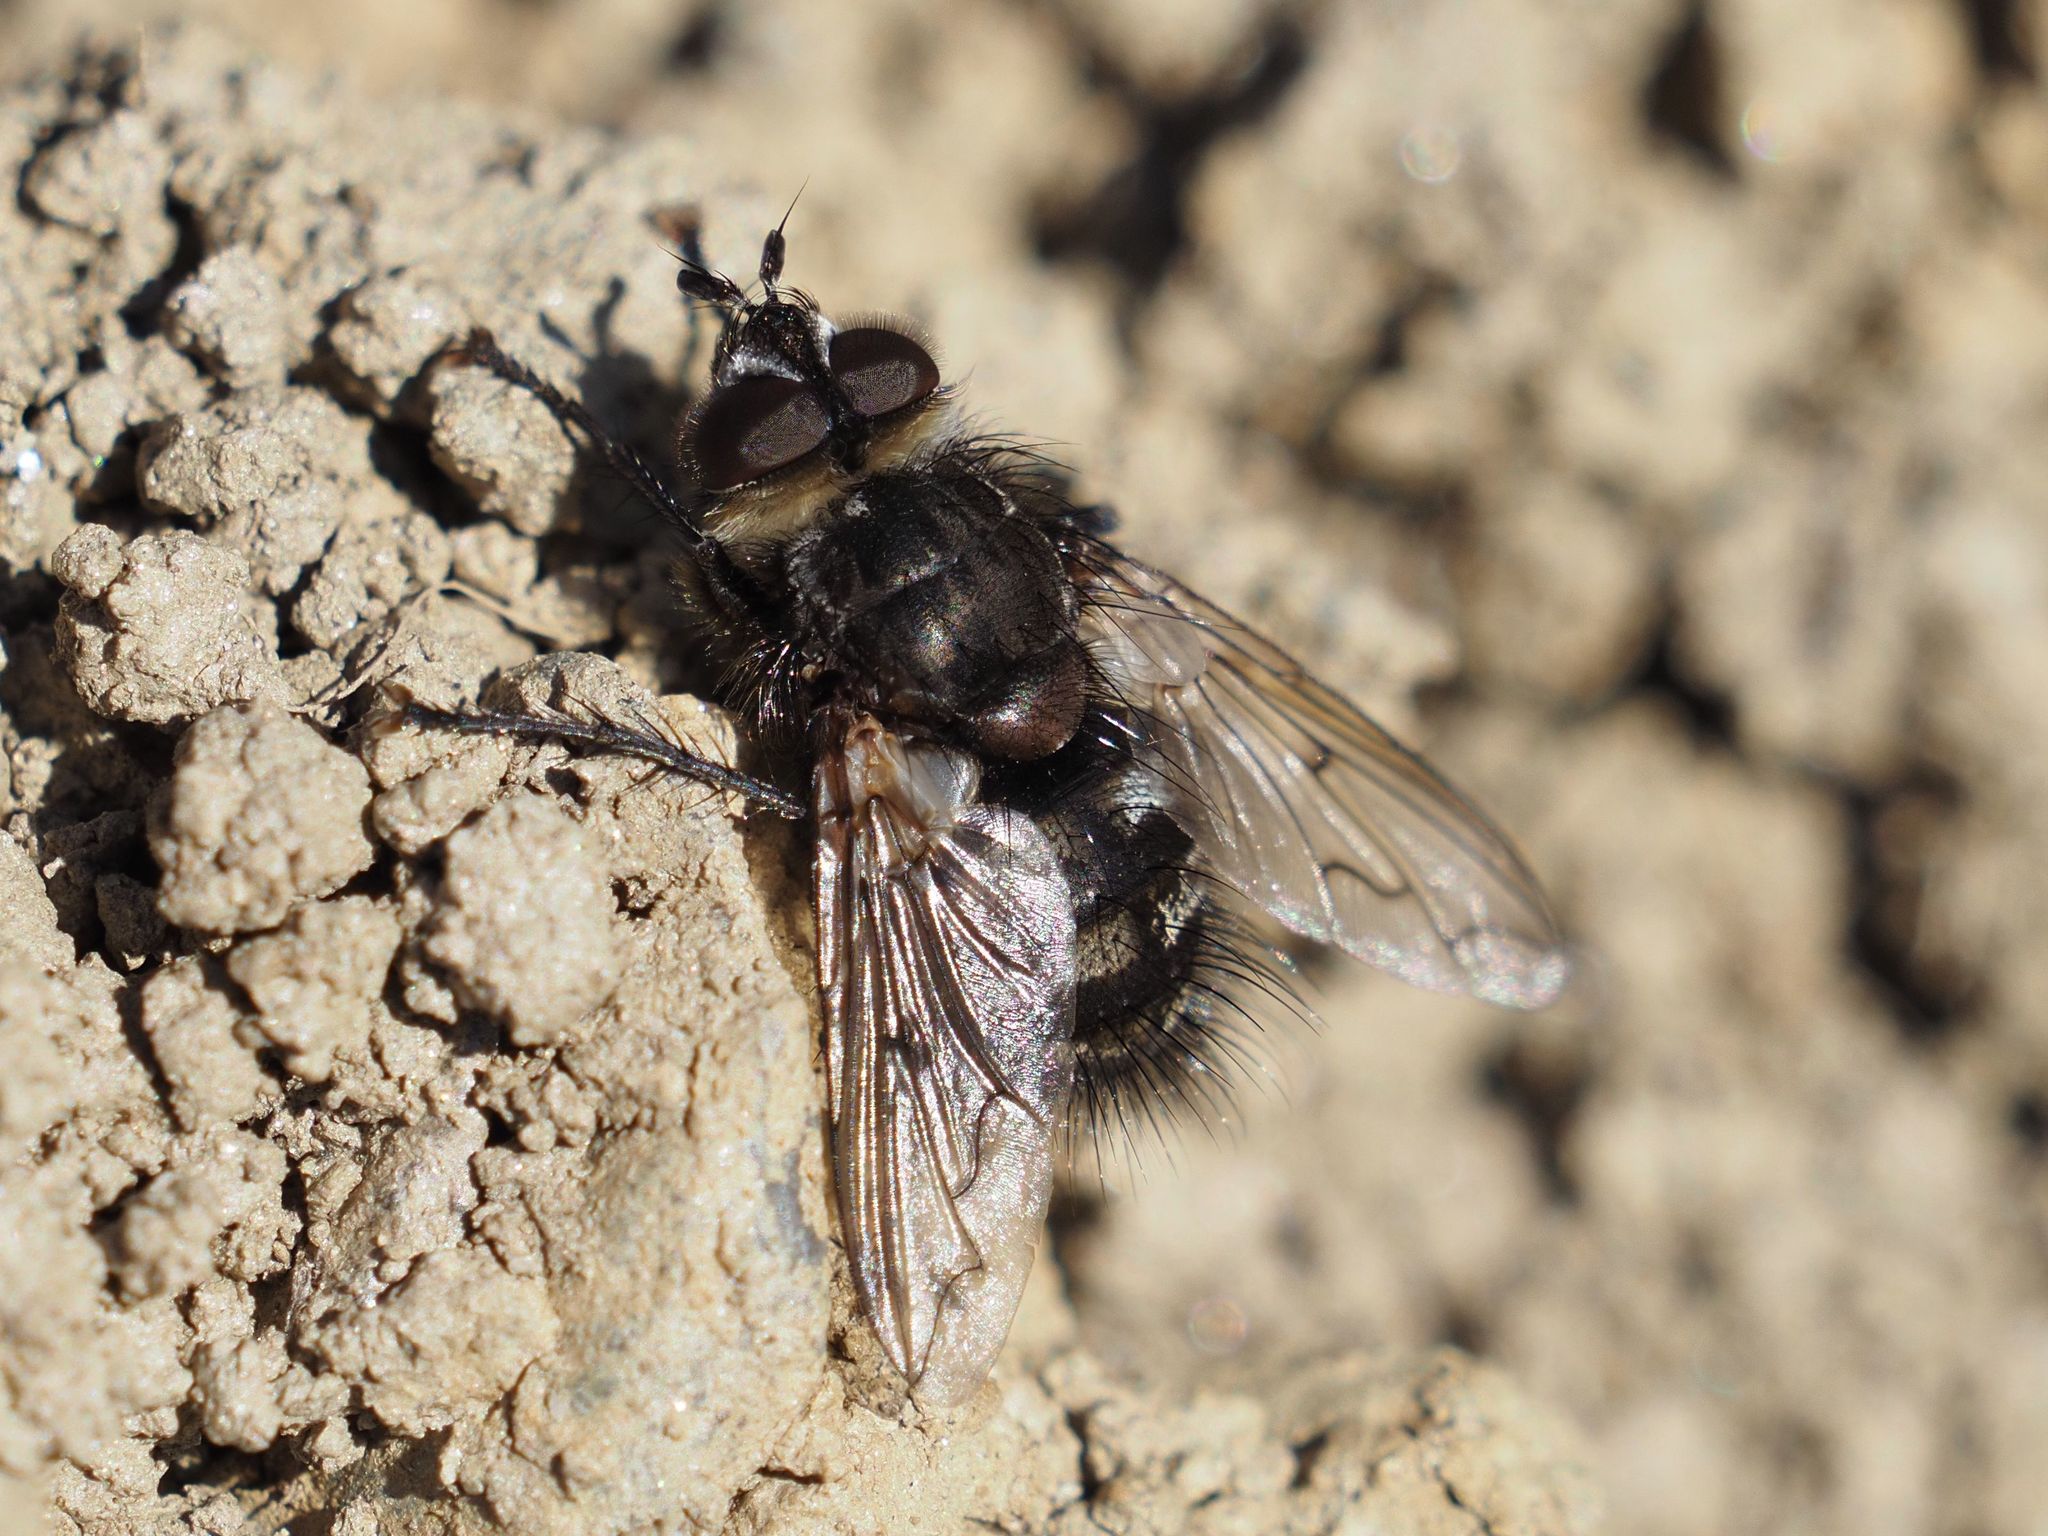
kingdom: Animalia
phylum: Arthropoda
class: Insecta
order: Diptera
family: Tachinidae
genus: Panzeria
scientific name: Panzeria puparum
